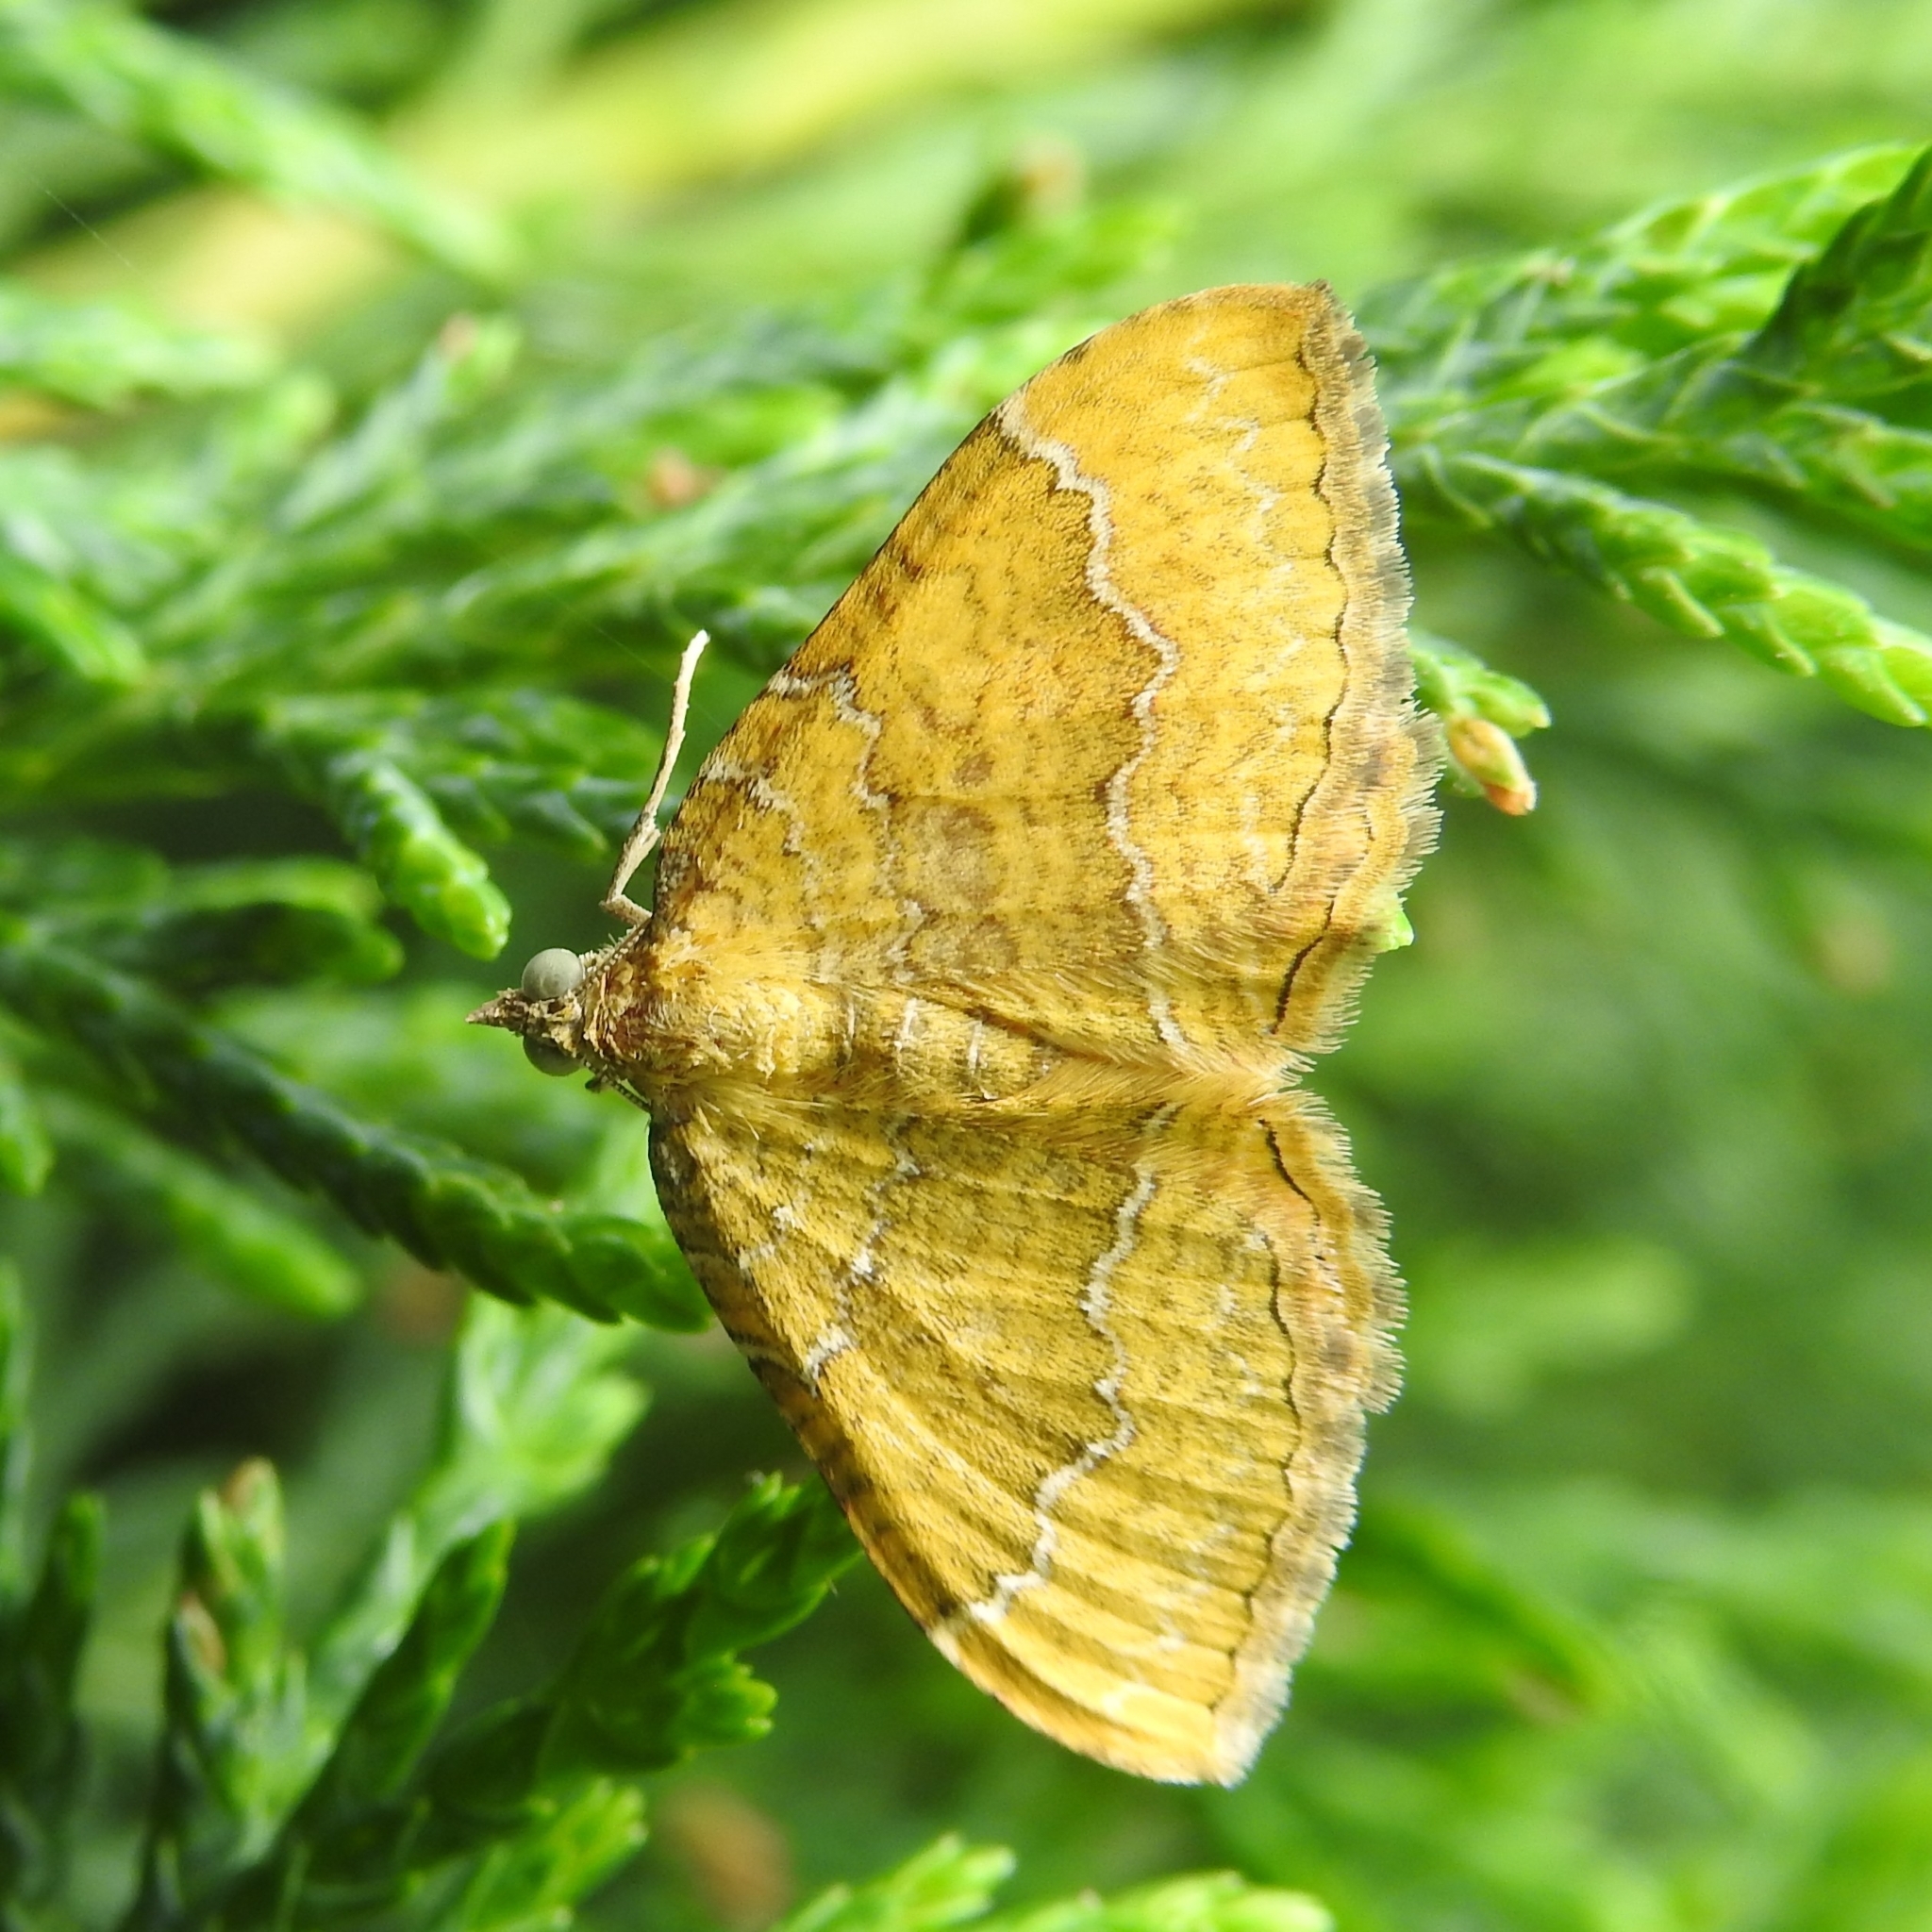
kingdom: Animalia
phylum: Arthropoda
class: Insecta
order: Lepidoptera
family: Geometridae
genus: Camptogramma
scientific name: Camptogramma bilineata
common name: Yellow shell
